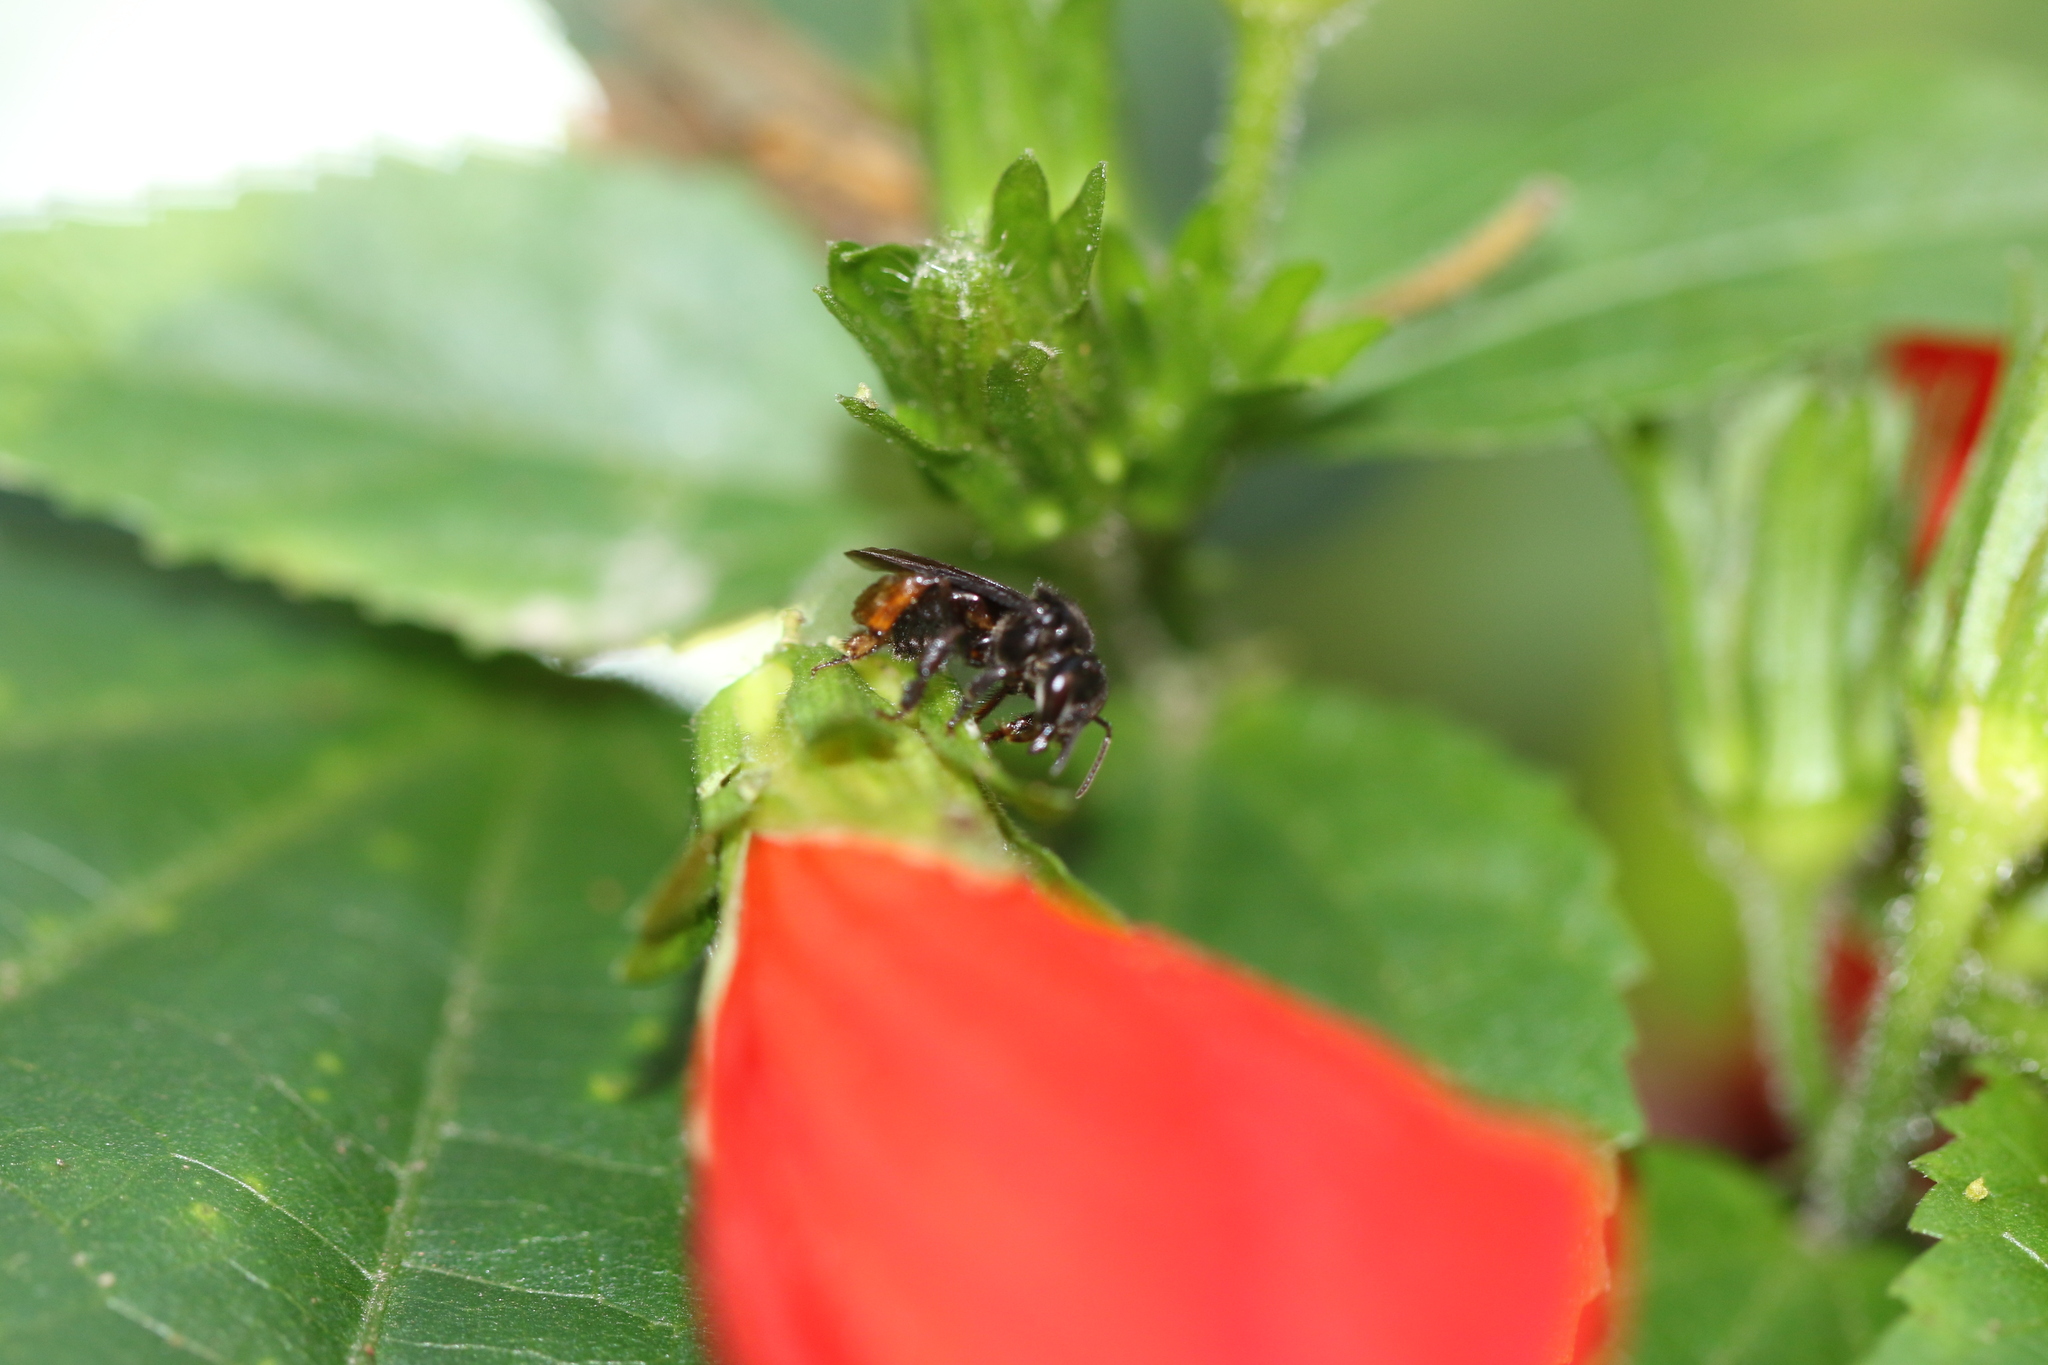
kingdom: Animalia
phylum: Arthropoda
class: Insecta
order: Hymenoptera
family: Apidae
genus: Trigona
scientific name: Trigona spinipes
